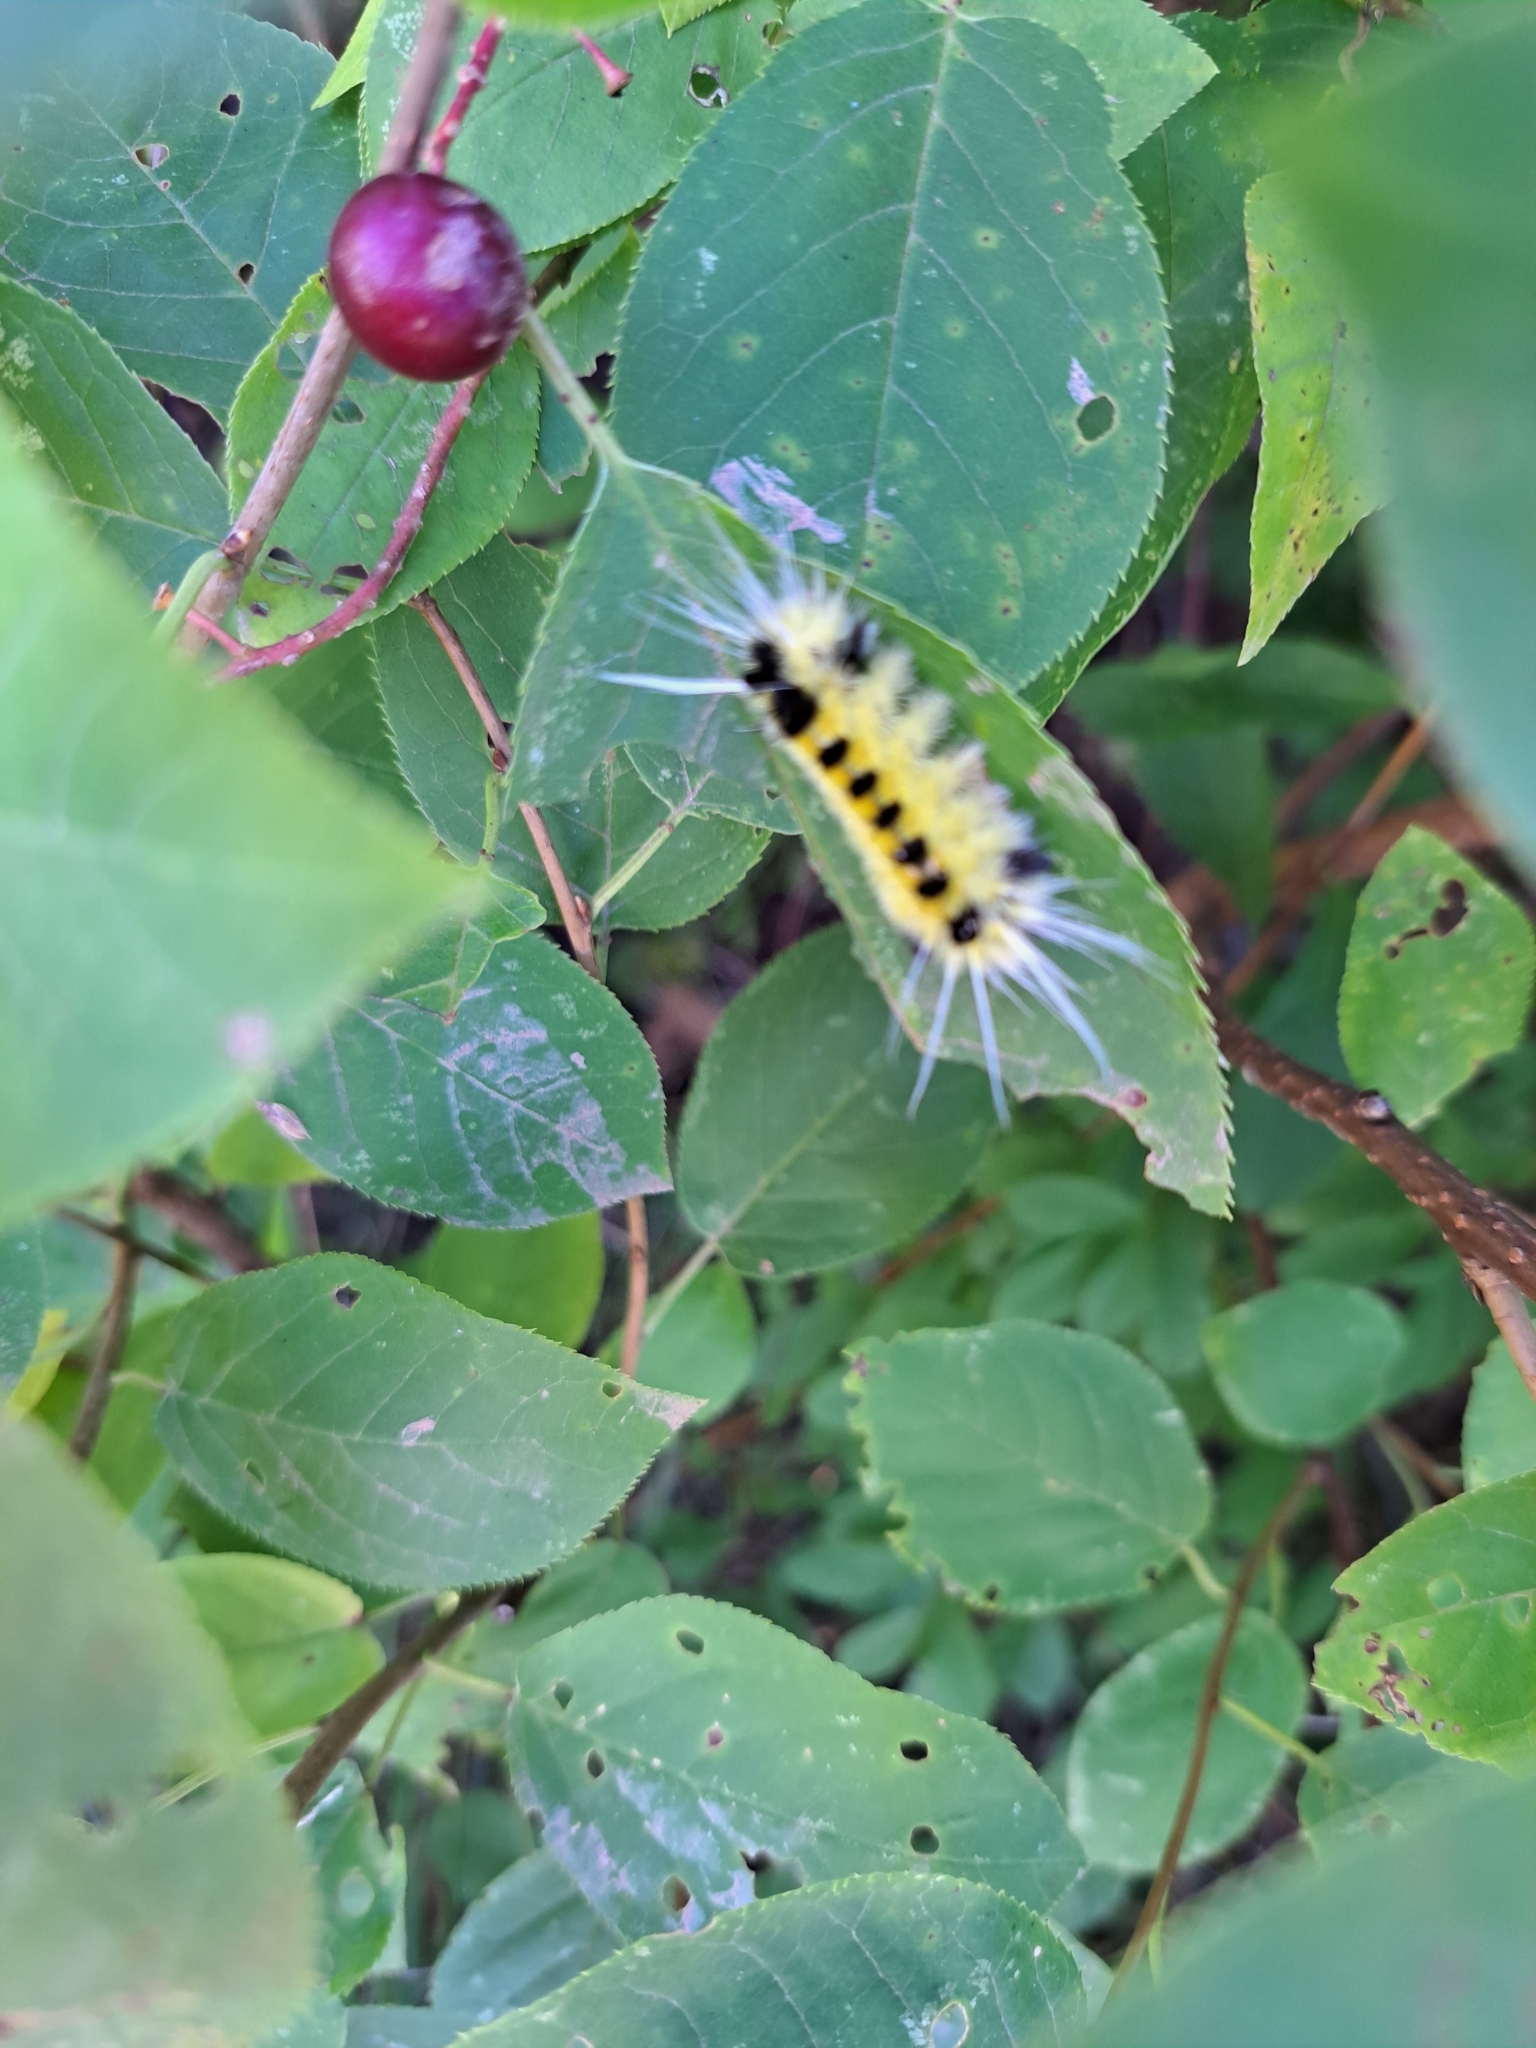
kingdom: Animalia
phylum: Arthropoda
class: Insecta
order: Lepidoptera
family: Erebidae
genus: Lophocampa
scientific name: Lophocampa maculata
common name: Spotted tussock moth
